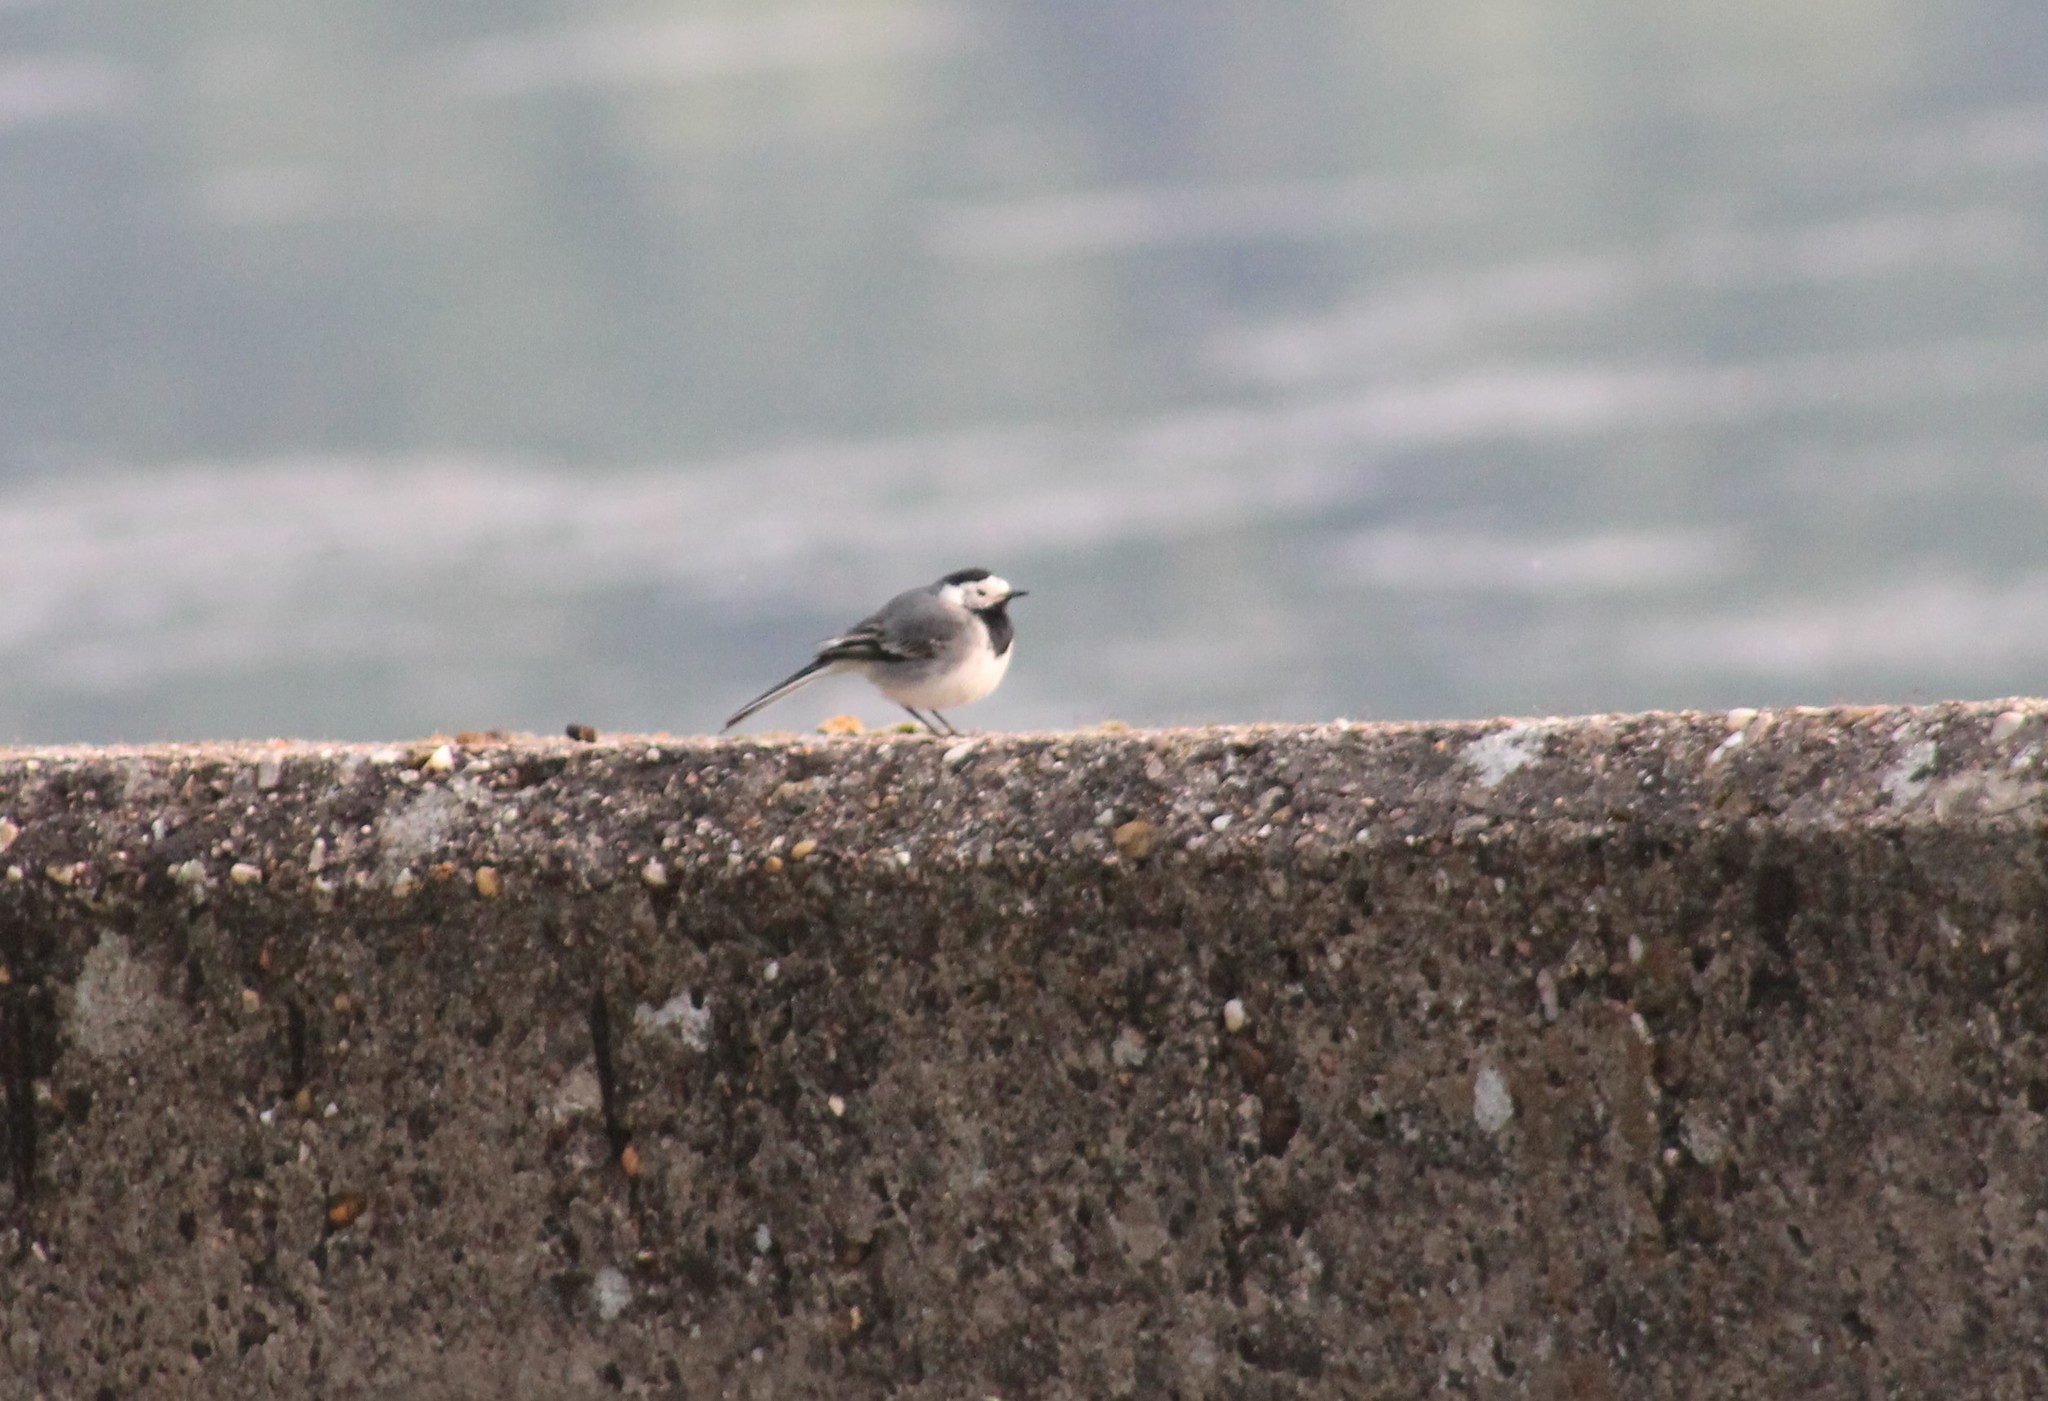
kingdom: Animalia
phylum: Chordata
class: Aves
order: Passeriformes
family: Motacillidae
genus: Motacilla
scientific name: Motacilla alba
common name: White wagtail
